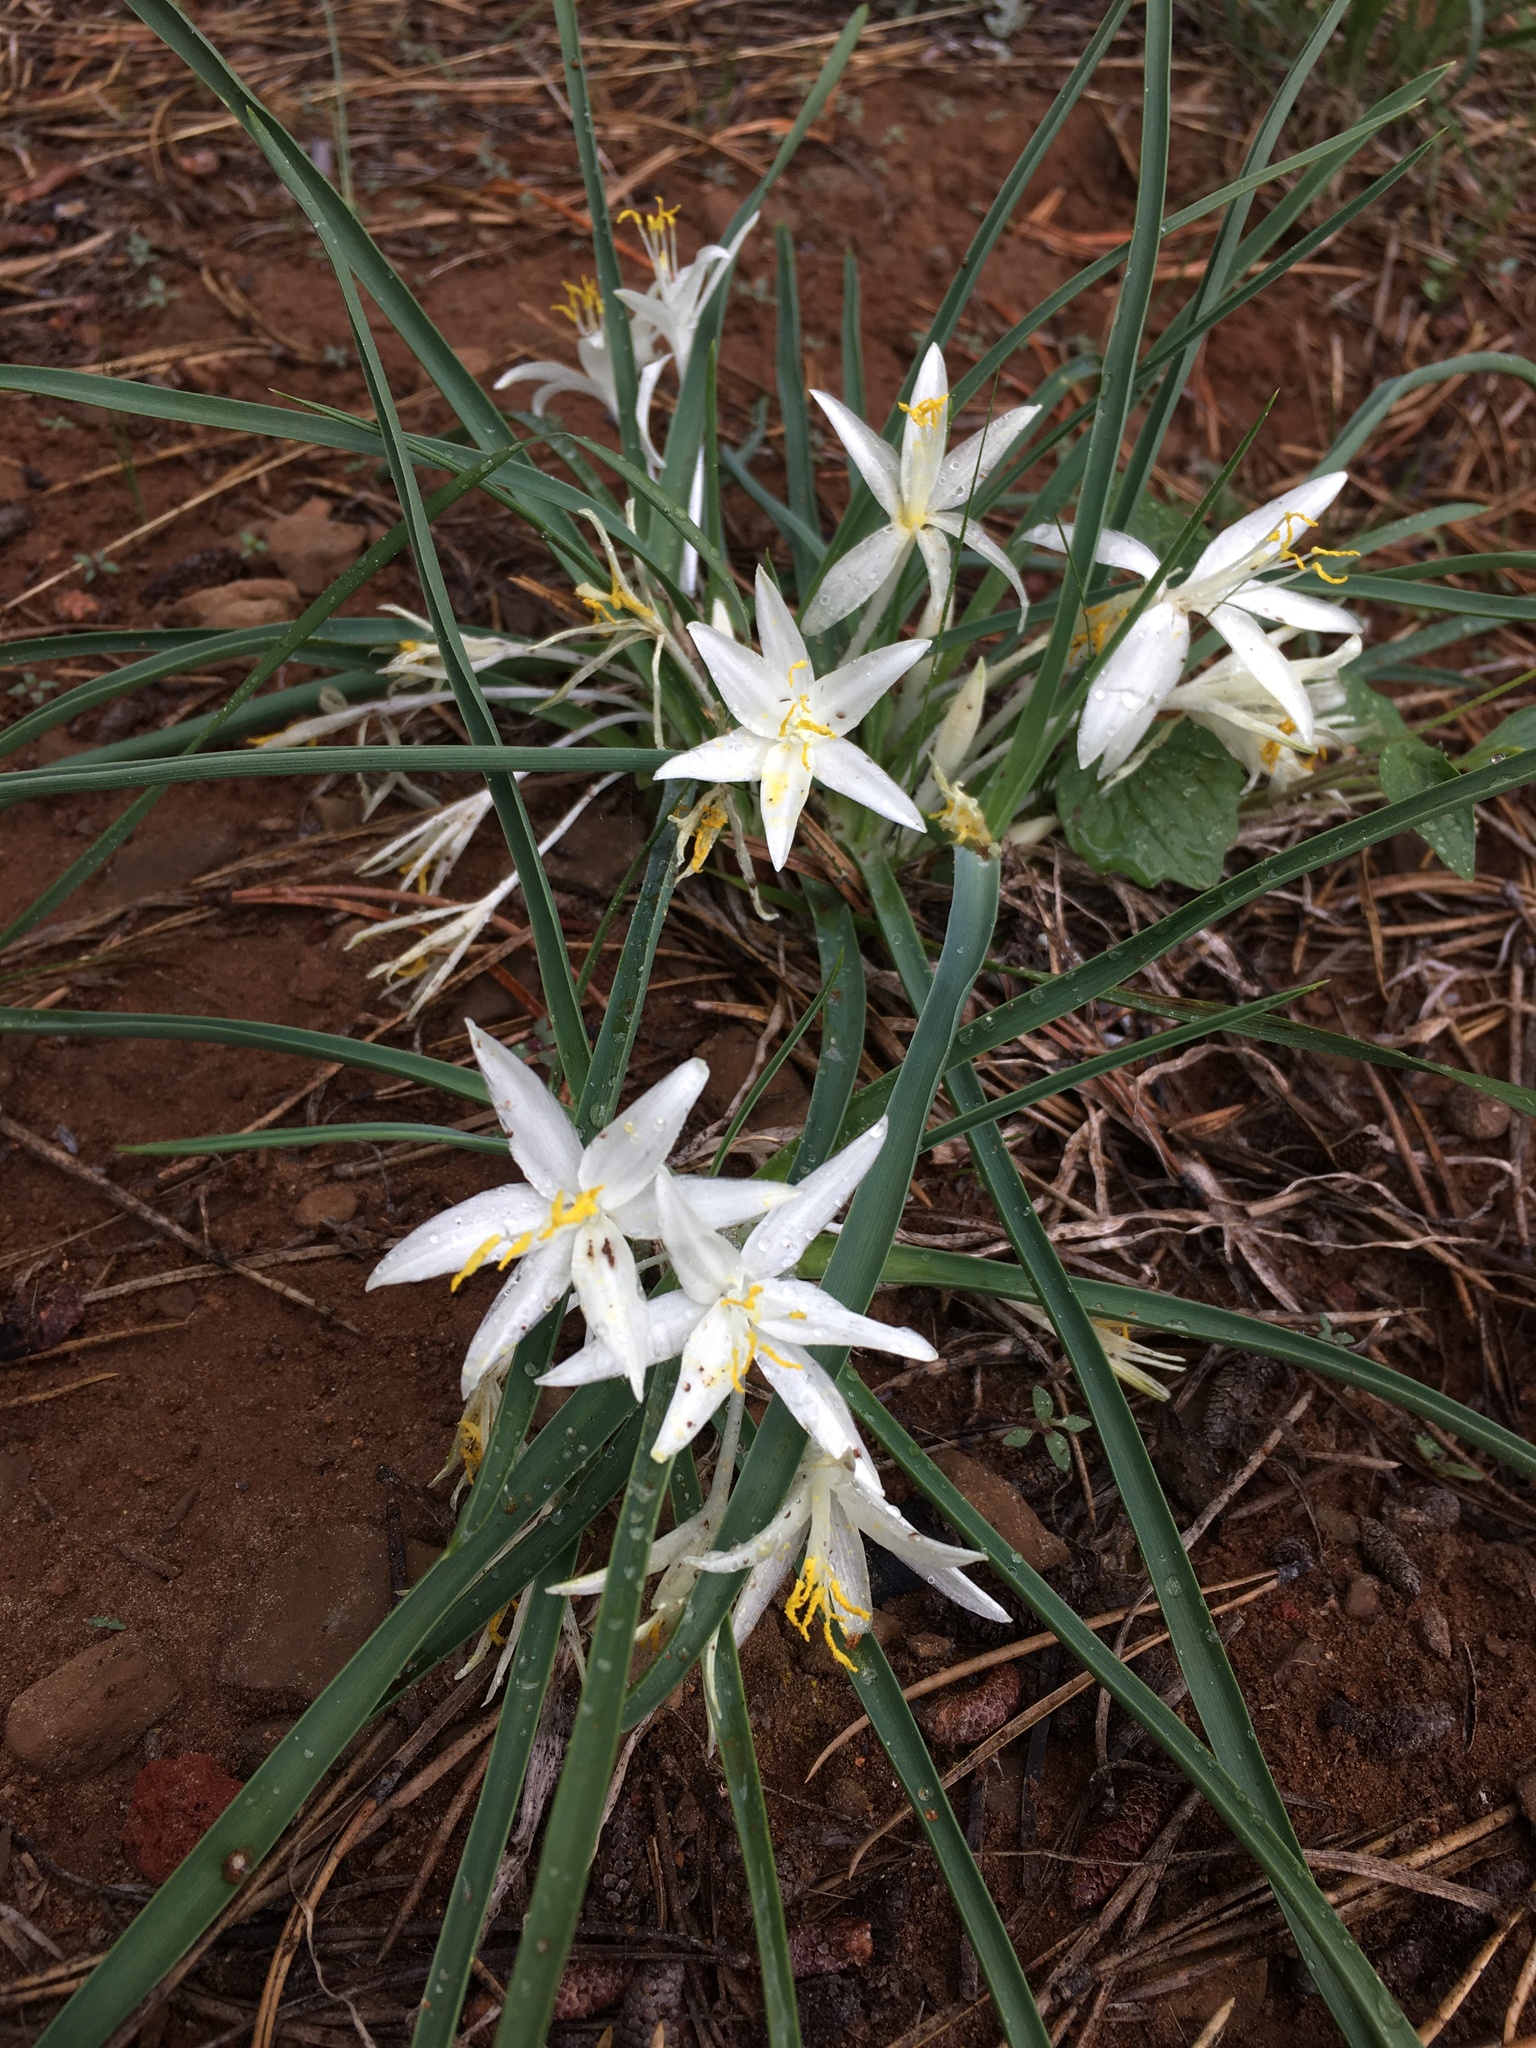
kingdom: Plantae
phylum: Tracheophyta
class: Liliopsida
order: Asparagales
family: Asparagaceae
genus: Leucocrinum
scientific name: Leucocrinum montanum
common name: Mountain-lily
